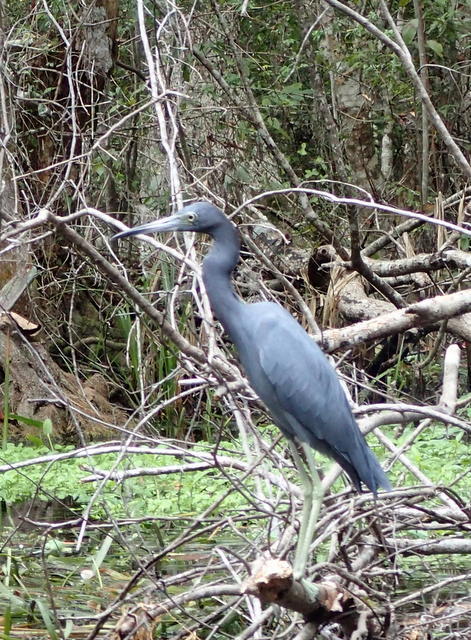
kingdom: Animalia
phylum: Chordata
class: Aves
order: Pelecaniformes
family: Ardeidae
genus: Egretta
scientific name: Egretta caerulea
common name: Little blue heron
